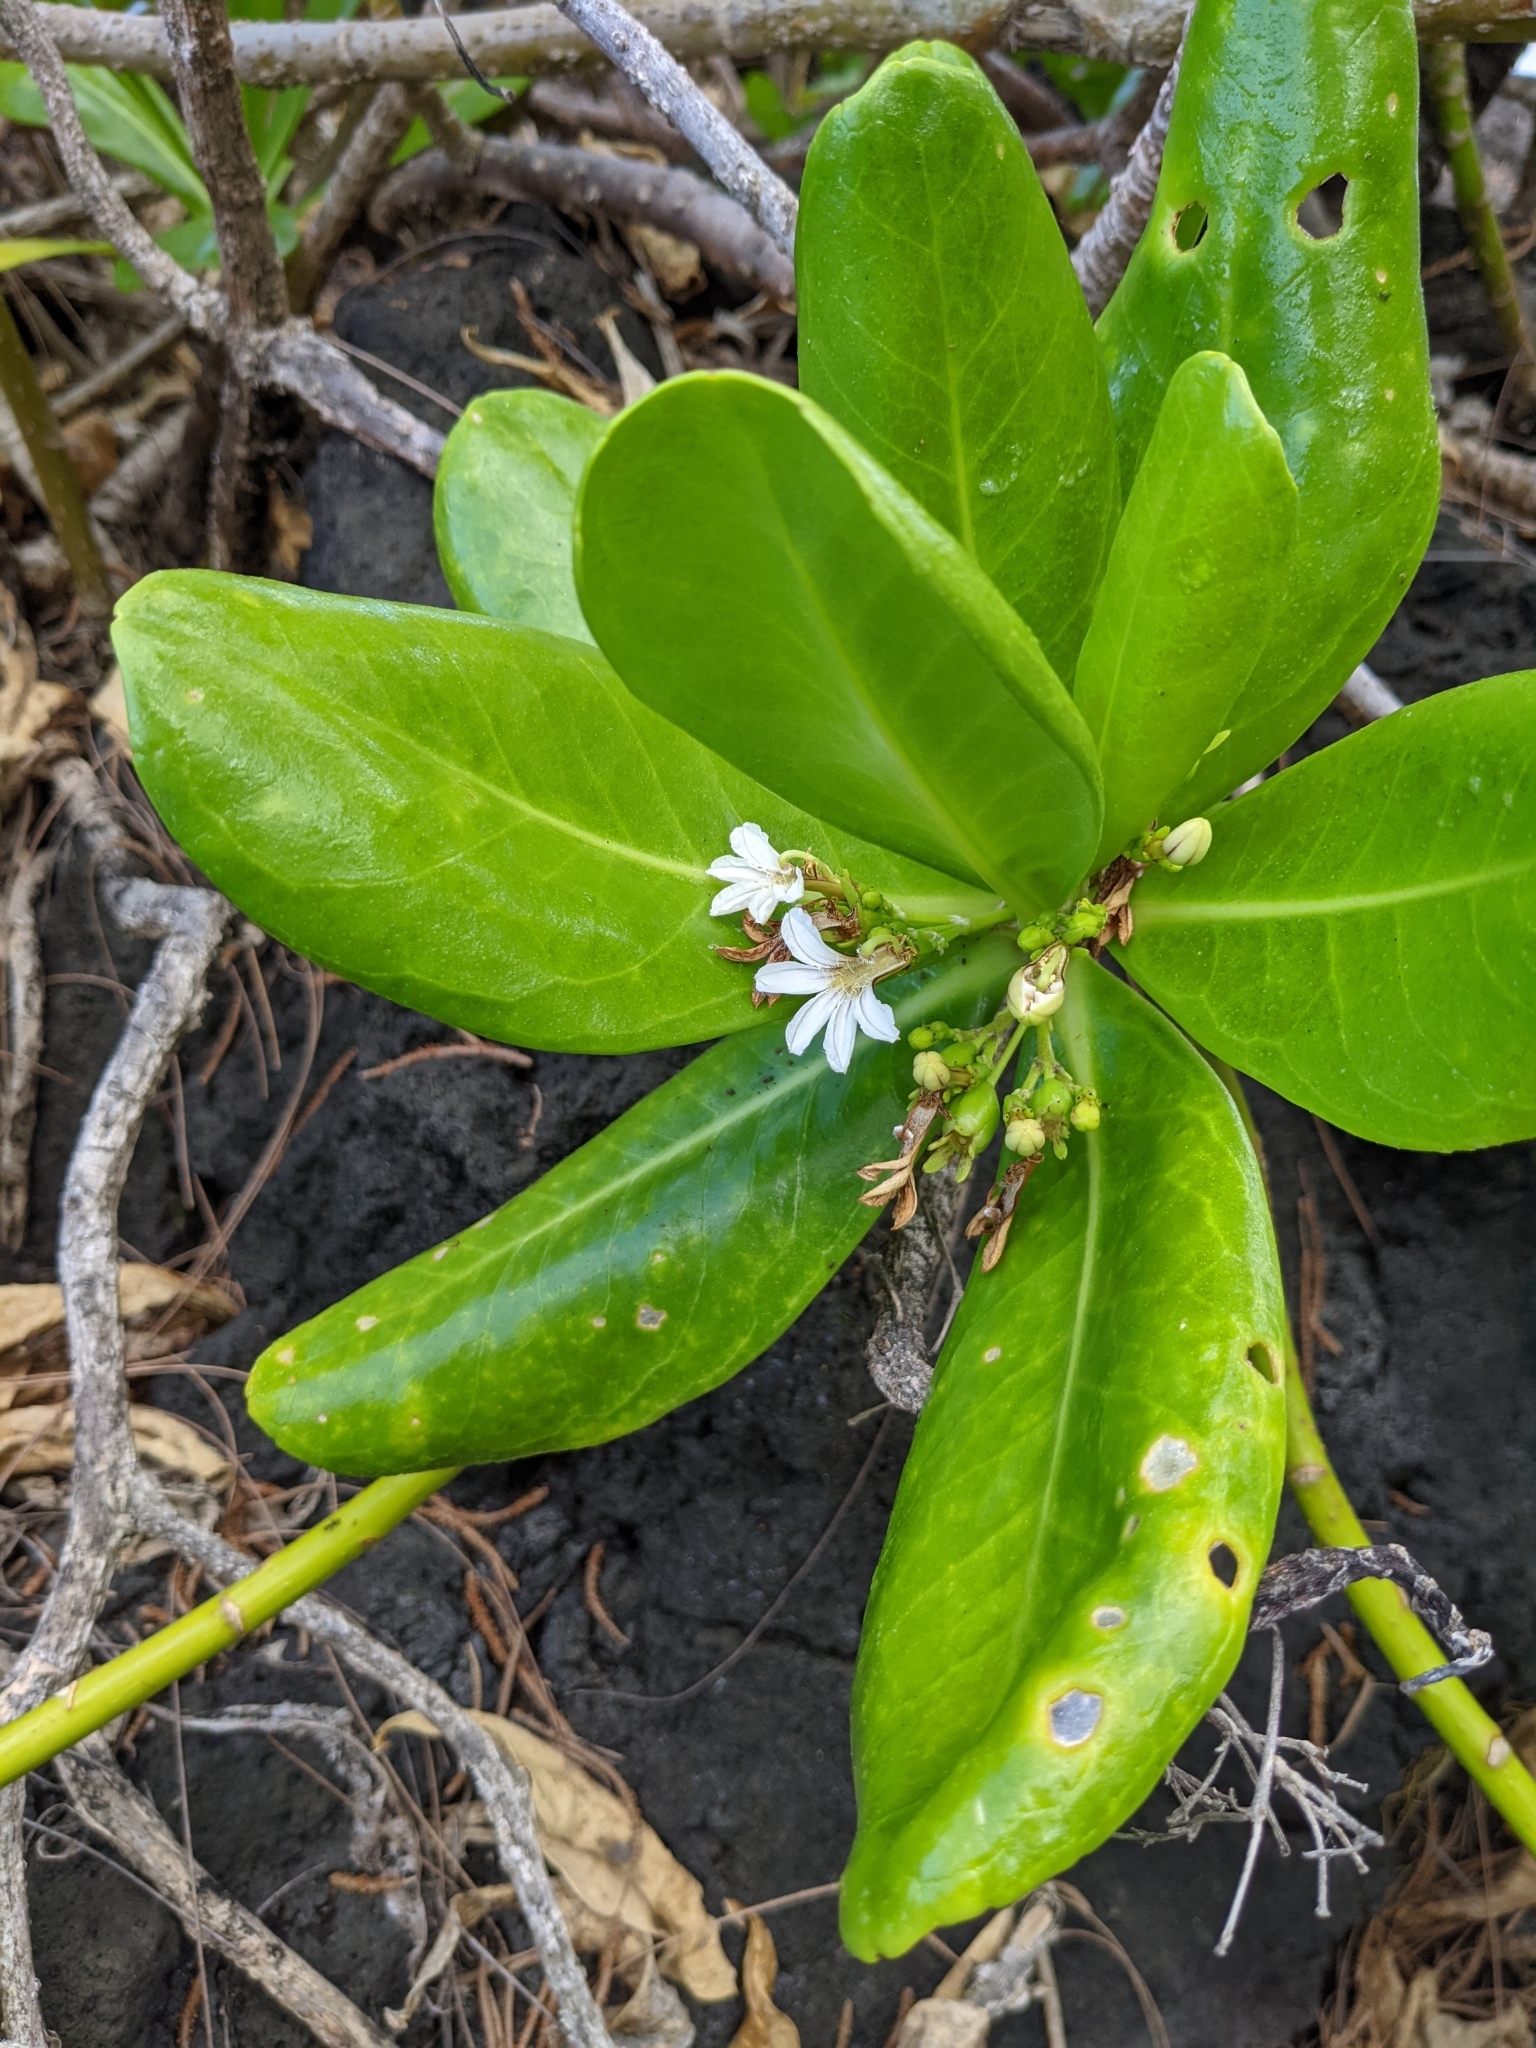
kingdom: Plantae
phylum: Tracheophyta
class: Magnoliopsida
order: Asterales
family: Goodeniaceae
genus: Scaevola
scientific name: Scaevola taccada
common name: Sea lettucetree
